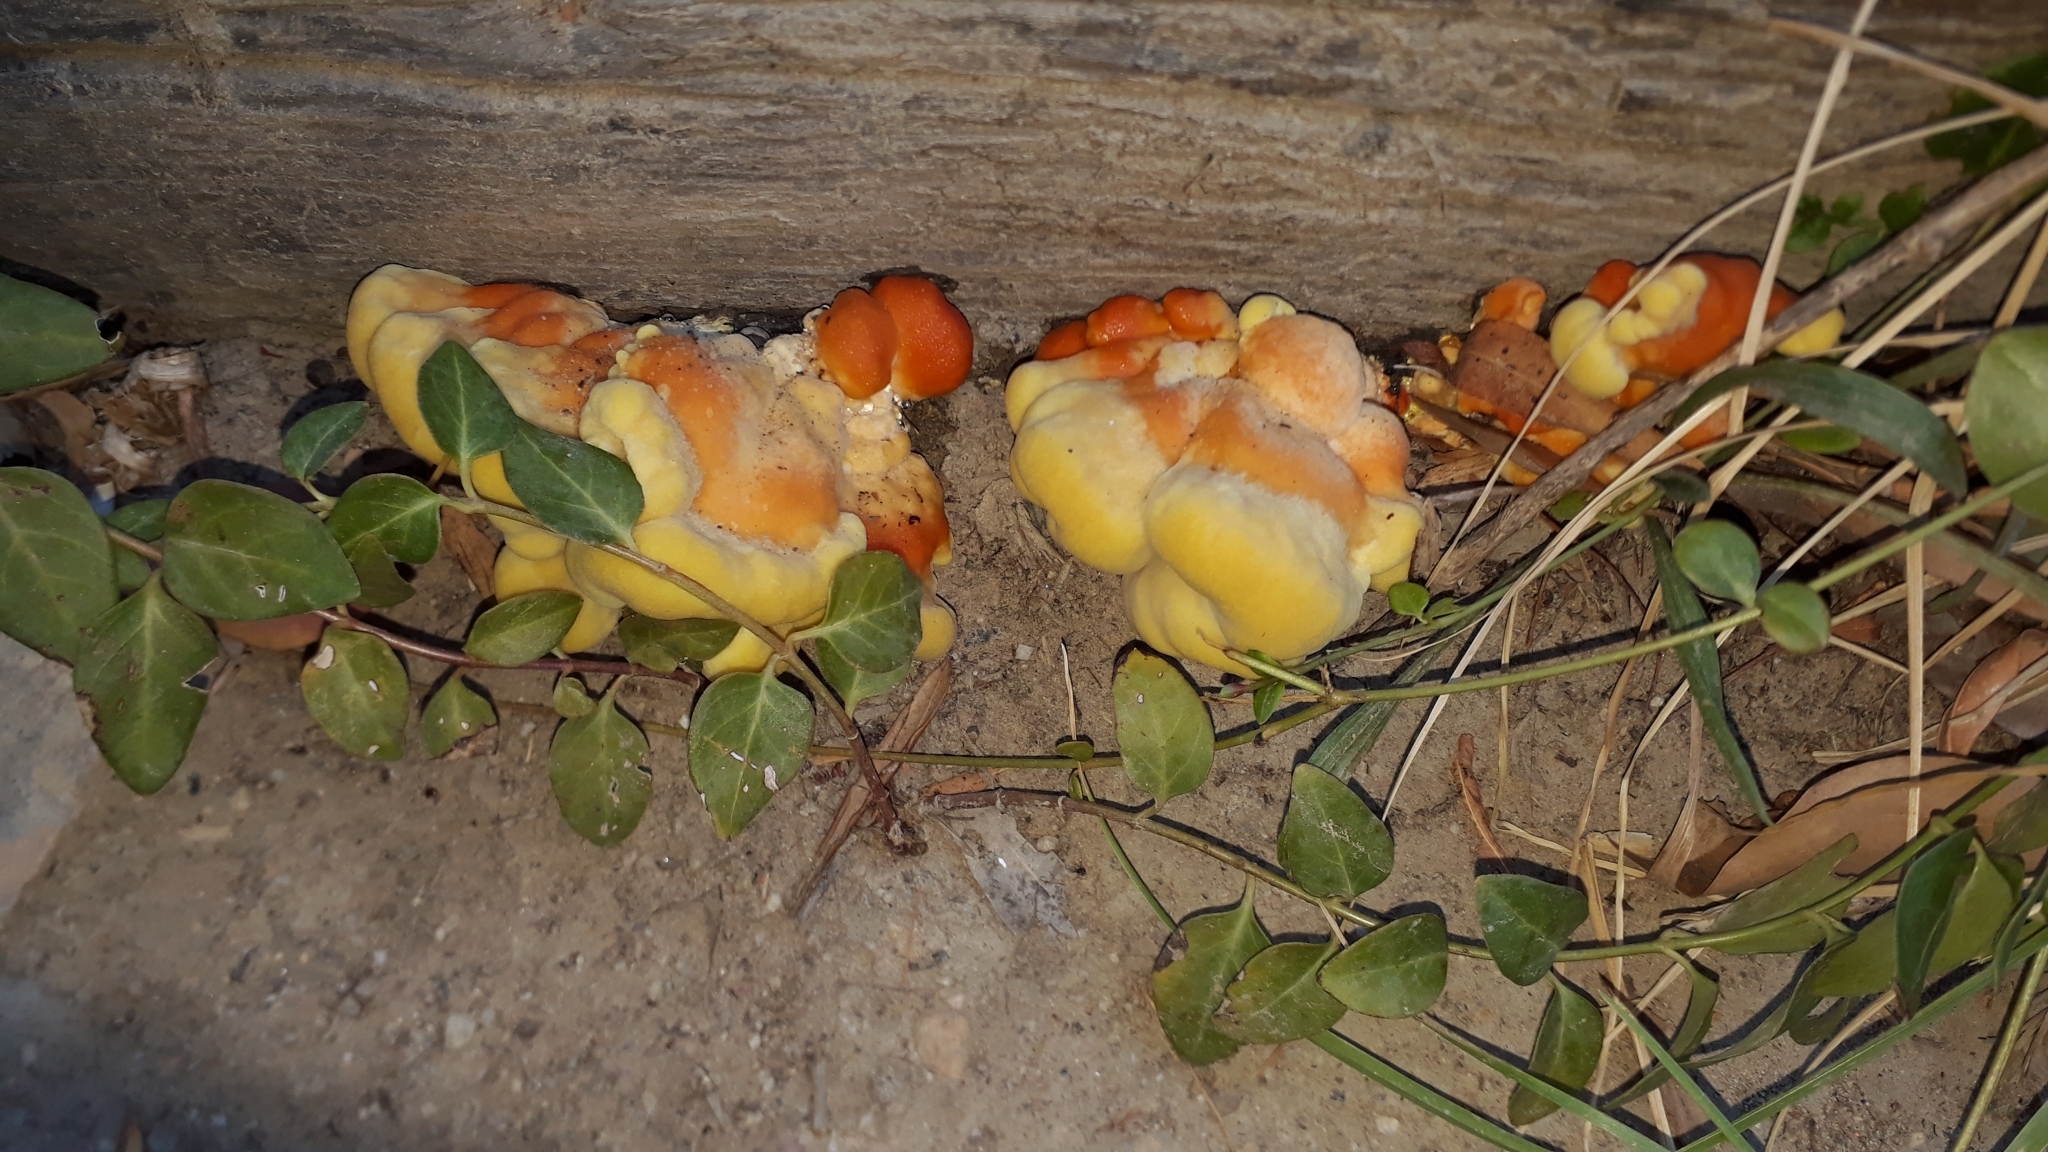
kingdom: Fungi
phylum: Basidiomycota
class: Agaricomycetes
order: Polyporales
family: Laetiporaceae
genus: Laetiporus
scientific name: Laetiporus sulphureus
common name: Chicken of the woods
